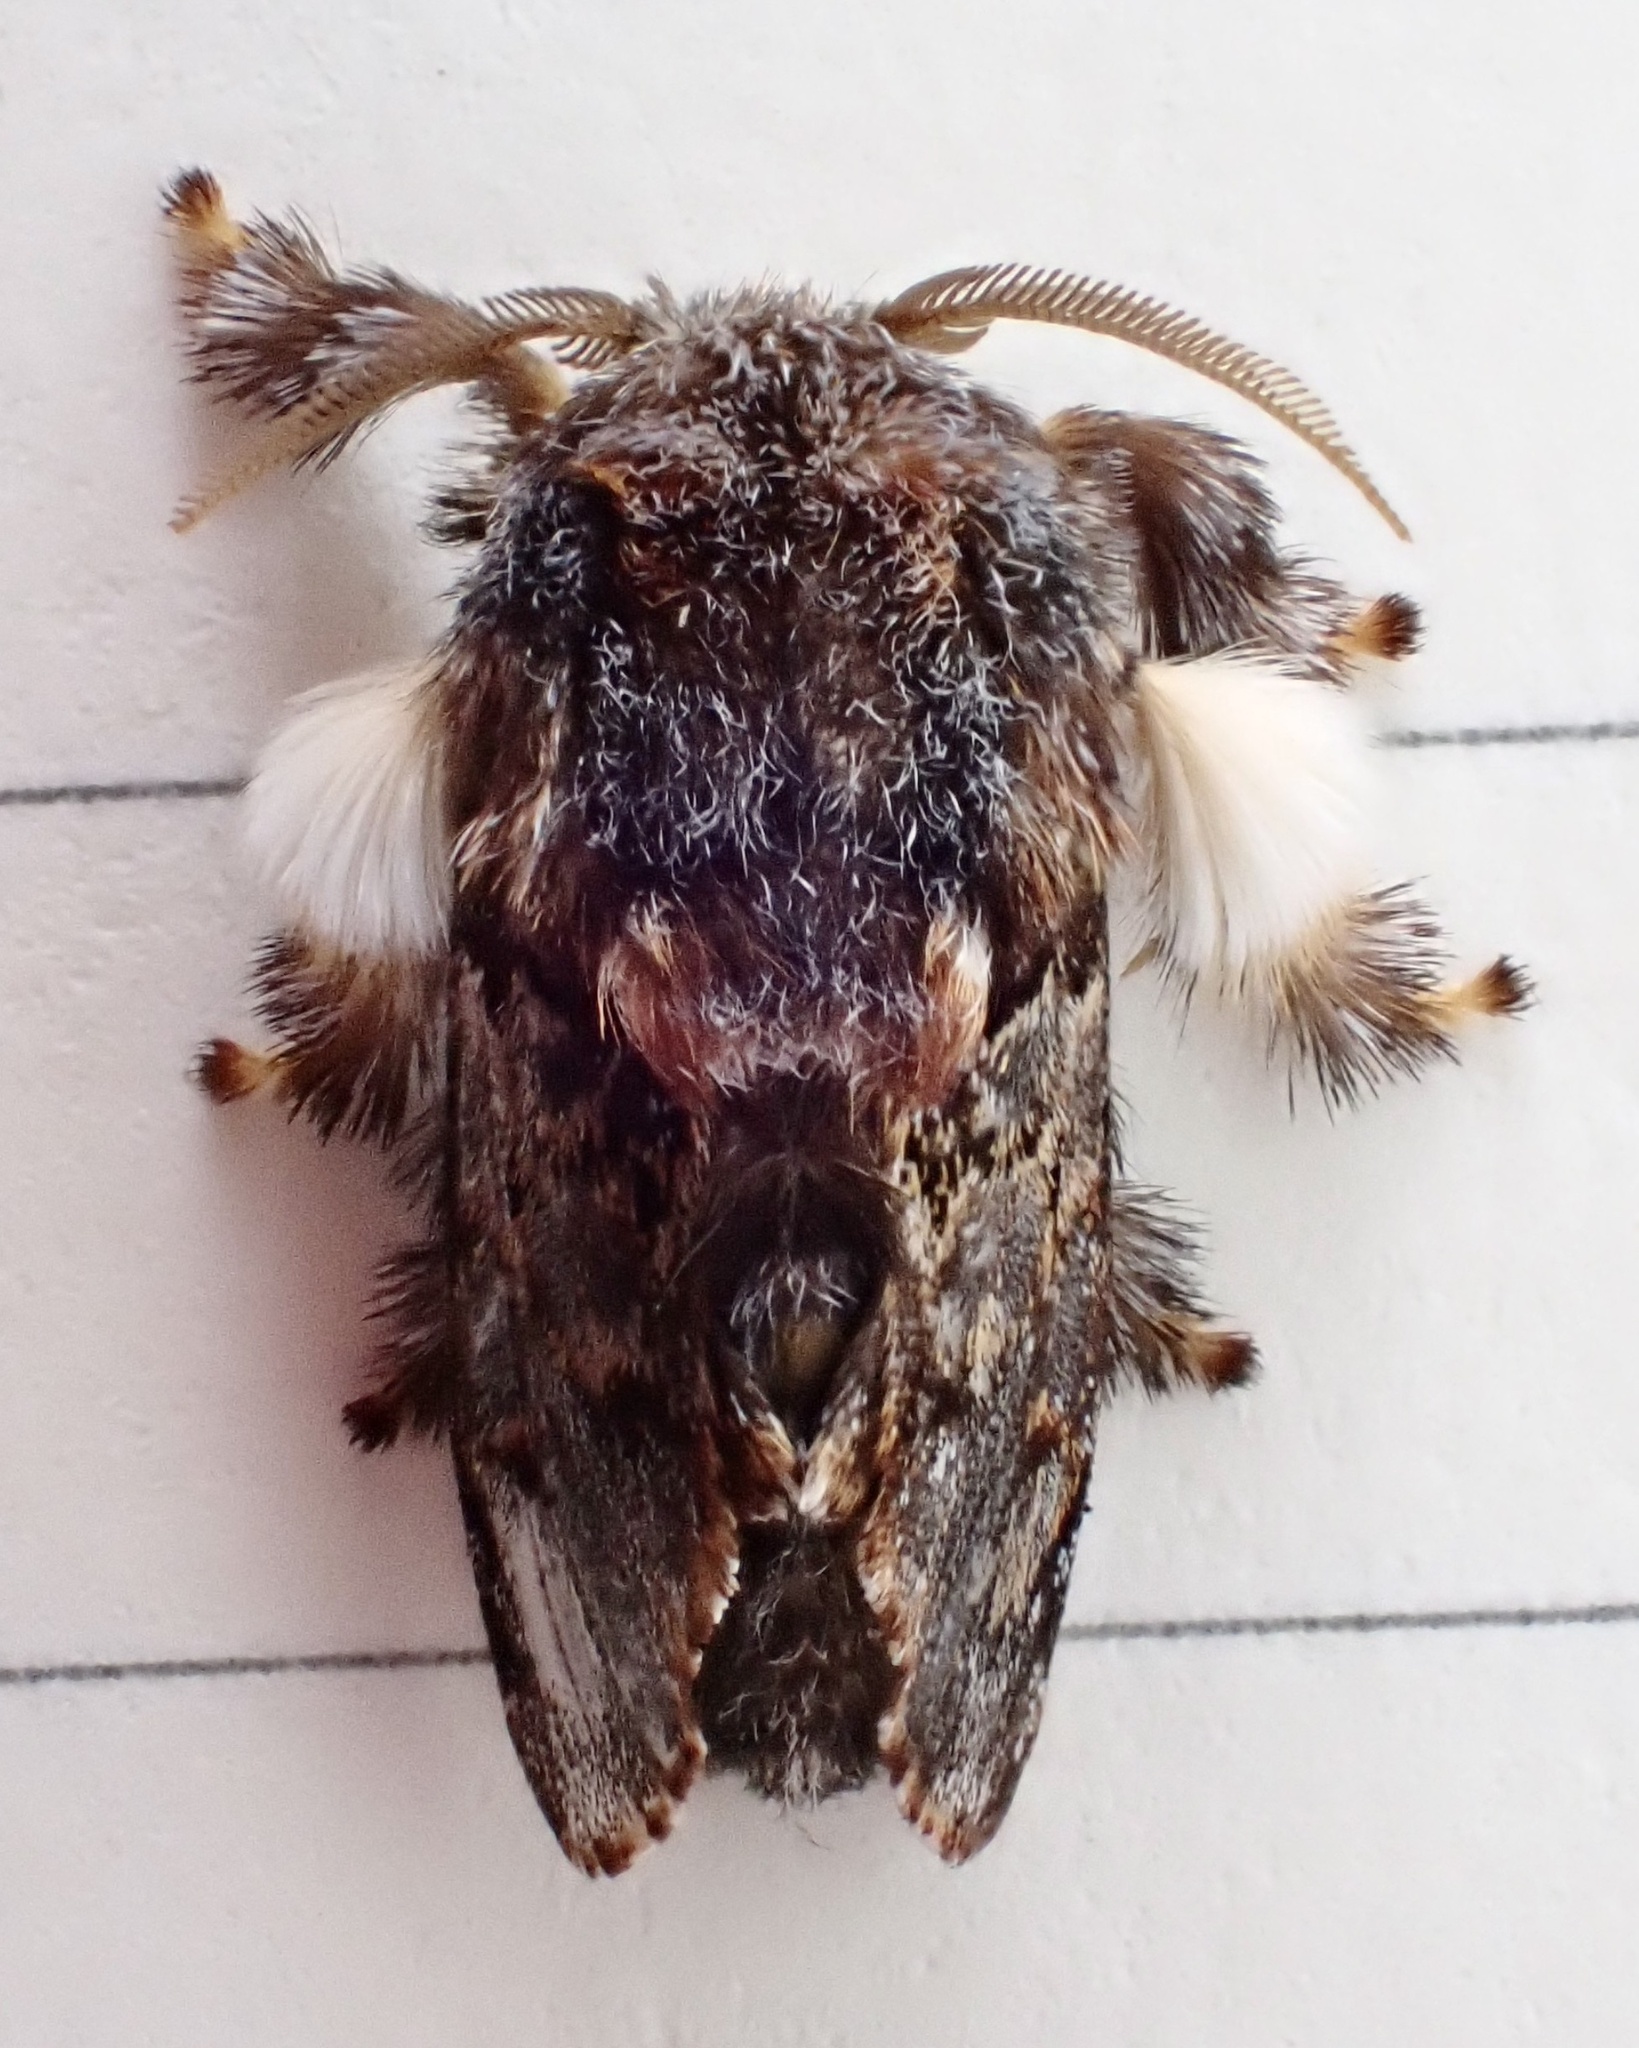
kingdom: Animalia
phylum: Arthropoda
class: Insecta
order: Lepidoptera
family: Limacodidae
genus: Phobetron
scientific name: Phobetron pithecium
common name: Hag moth
